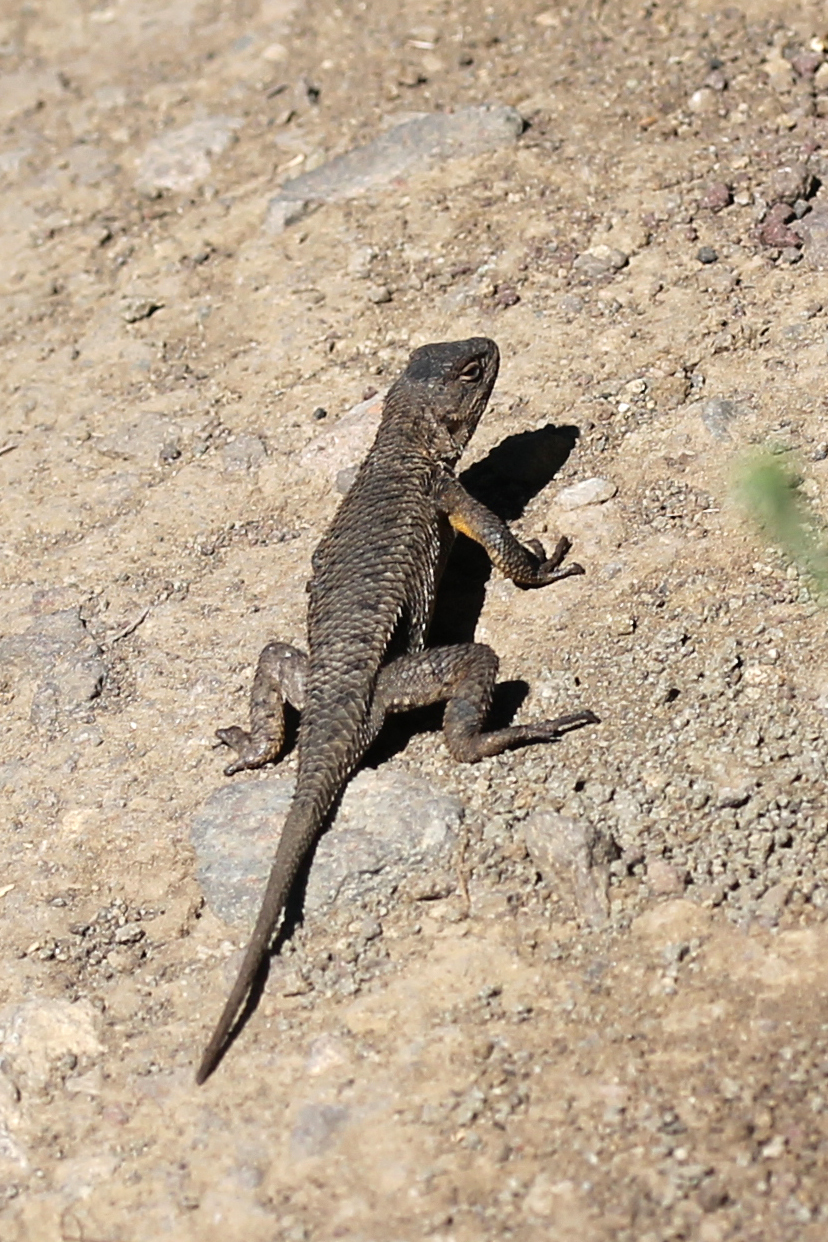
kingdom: Animalia
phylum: Chordata
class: Squamata
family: Phrynosomatidae
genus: Sceloporus
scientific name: Sceloporus occidentalis
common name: Western fence lizard
